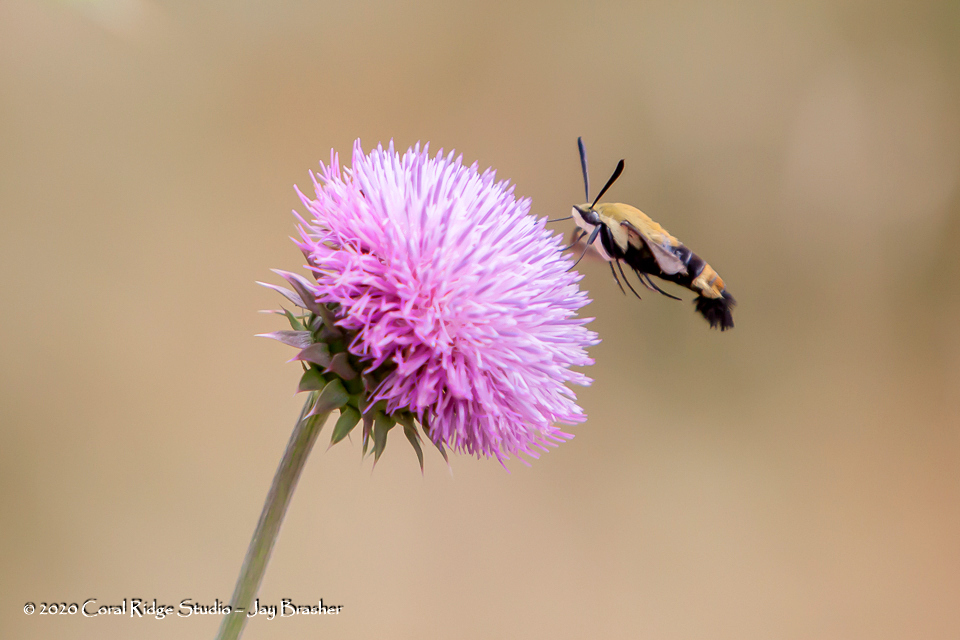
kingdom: Animalia
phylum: Arthropoda
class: Insecta
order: Lepidoptera
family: Sphingidae
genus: Hemaris
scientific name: Hemaris diffinis
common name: Bumblebee moth
